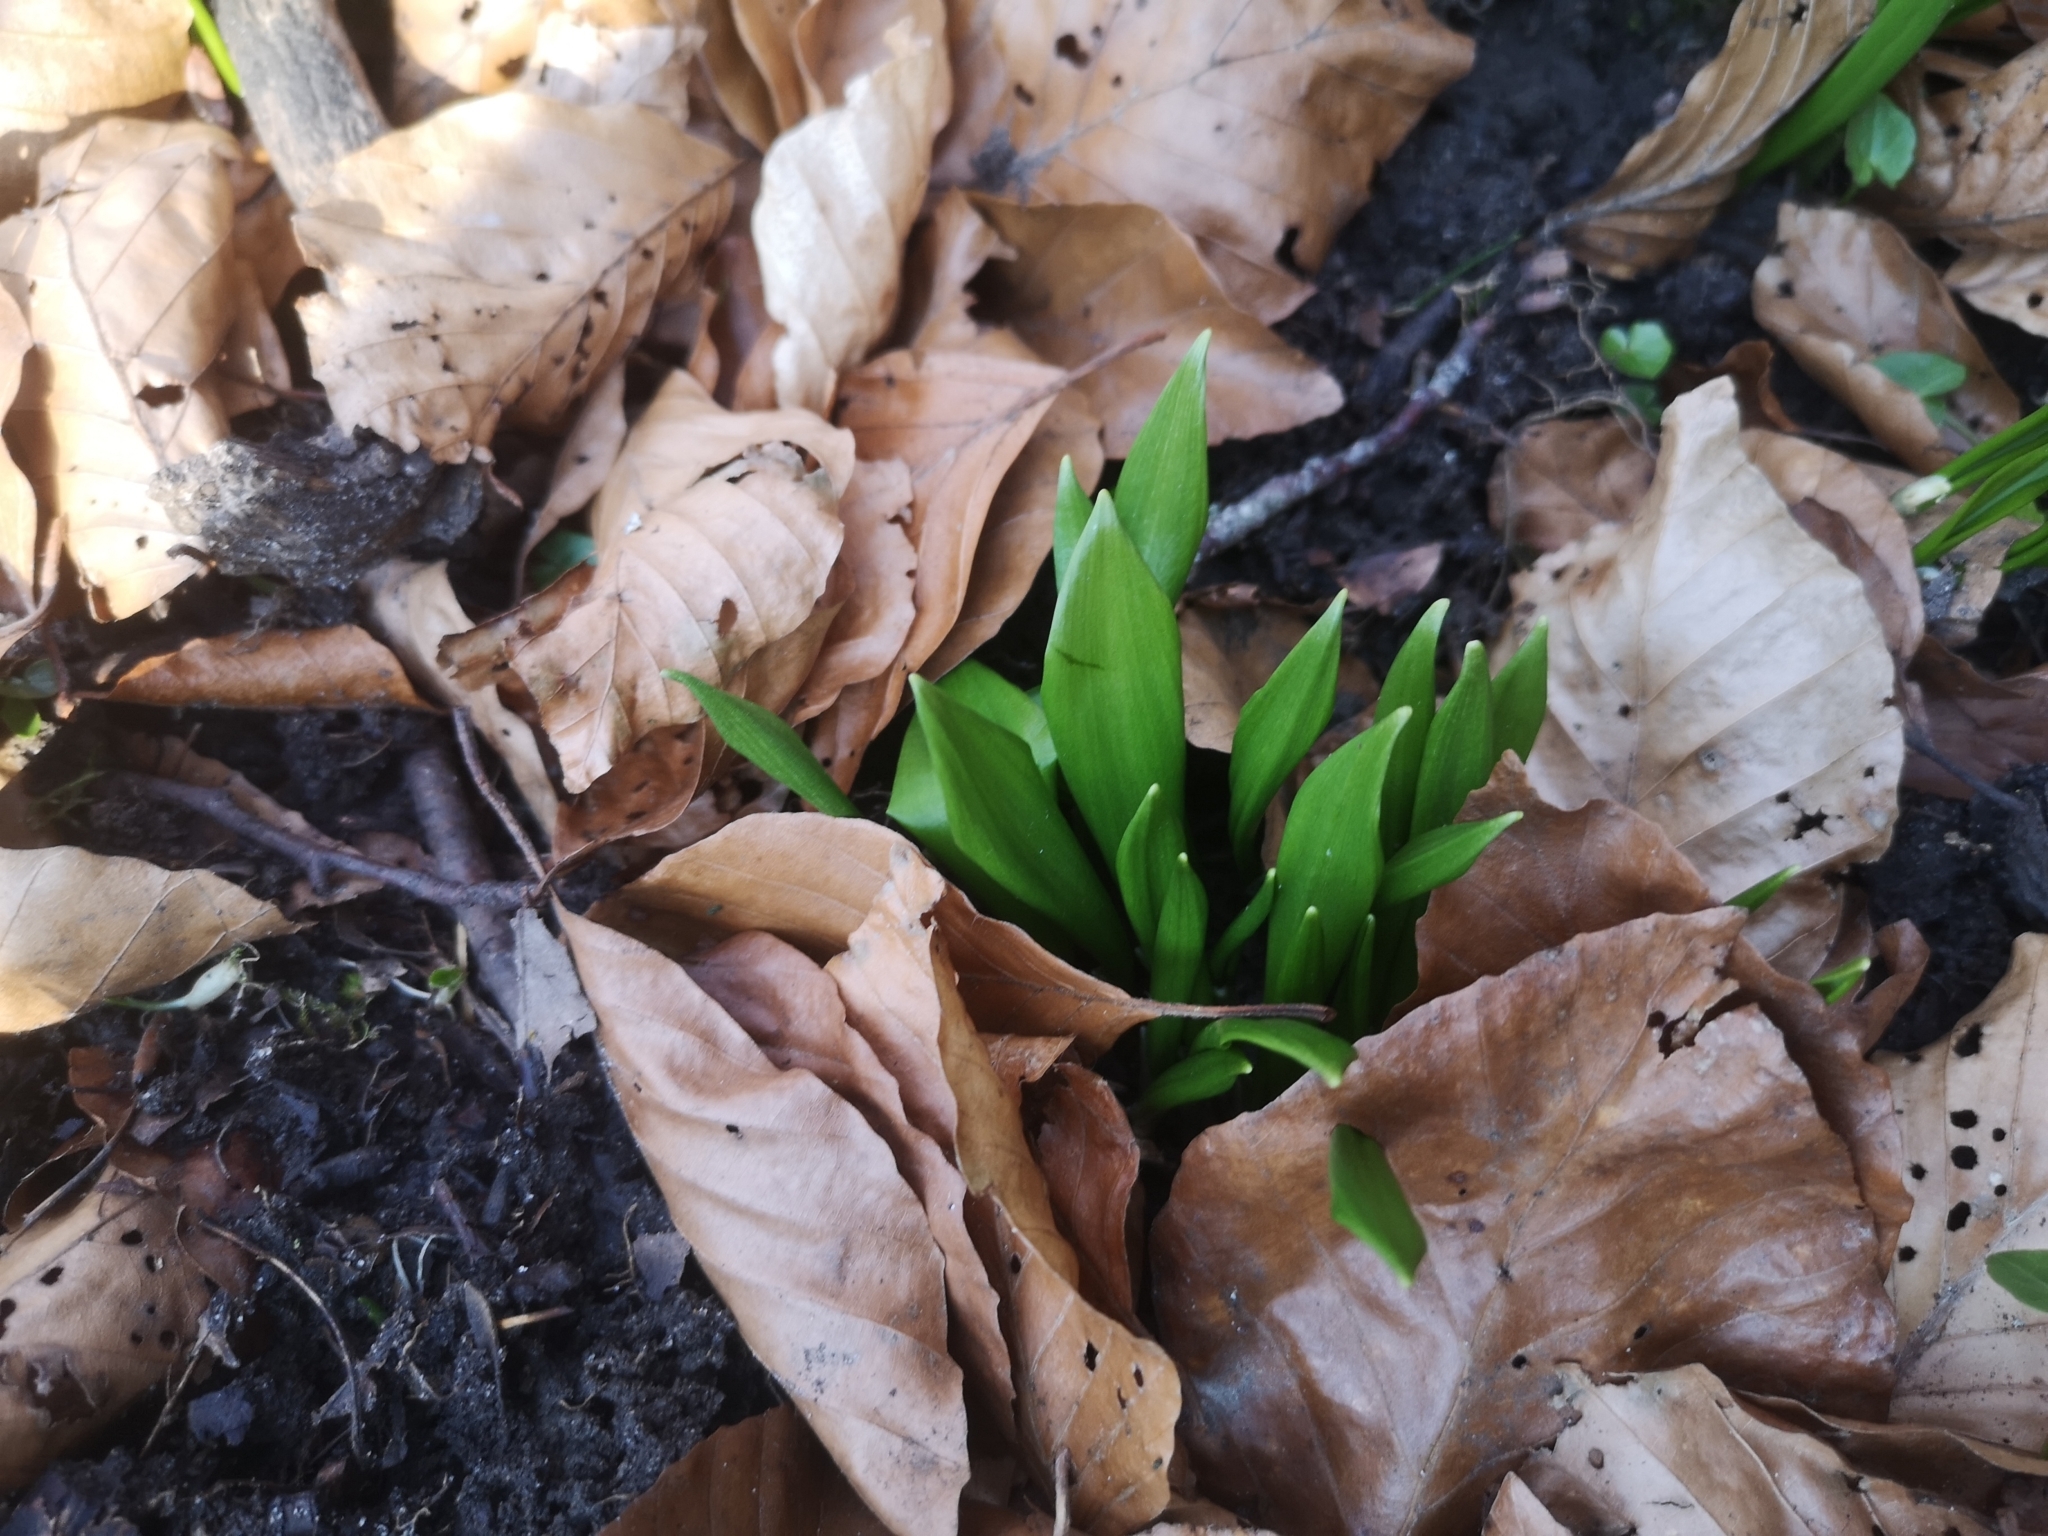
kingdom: Plantae
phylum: Tracheophyta
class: Liliopsida
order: Asparagales
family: Amaryllidaceae
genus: Allium
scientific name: Allium ursinum
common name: Ramsons
